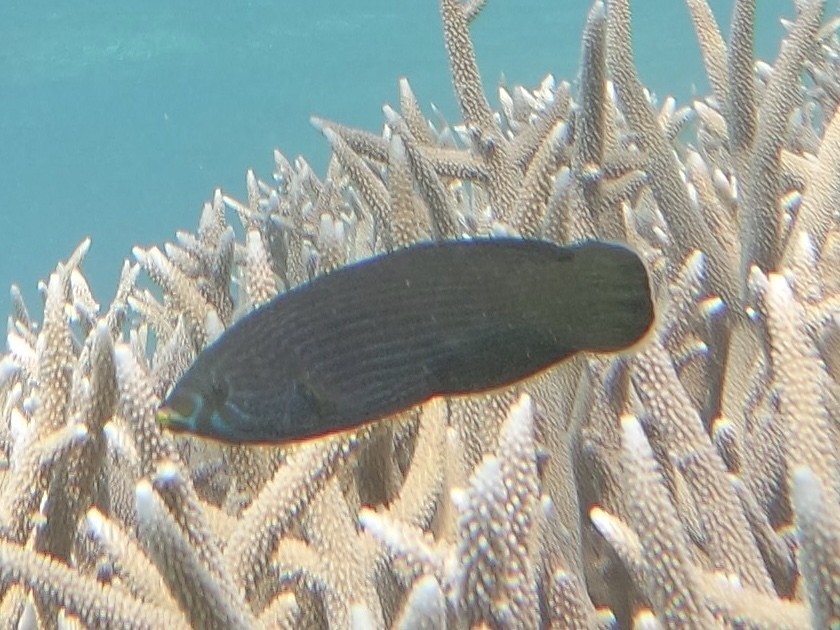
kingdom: Animalia
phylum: Chordata
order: Perciformes
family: Labridae
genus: Labrichthys
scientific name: Labrichthys unilineatus
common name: Onelined wrasse
